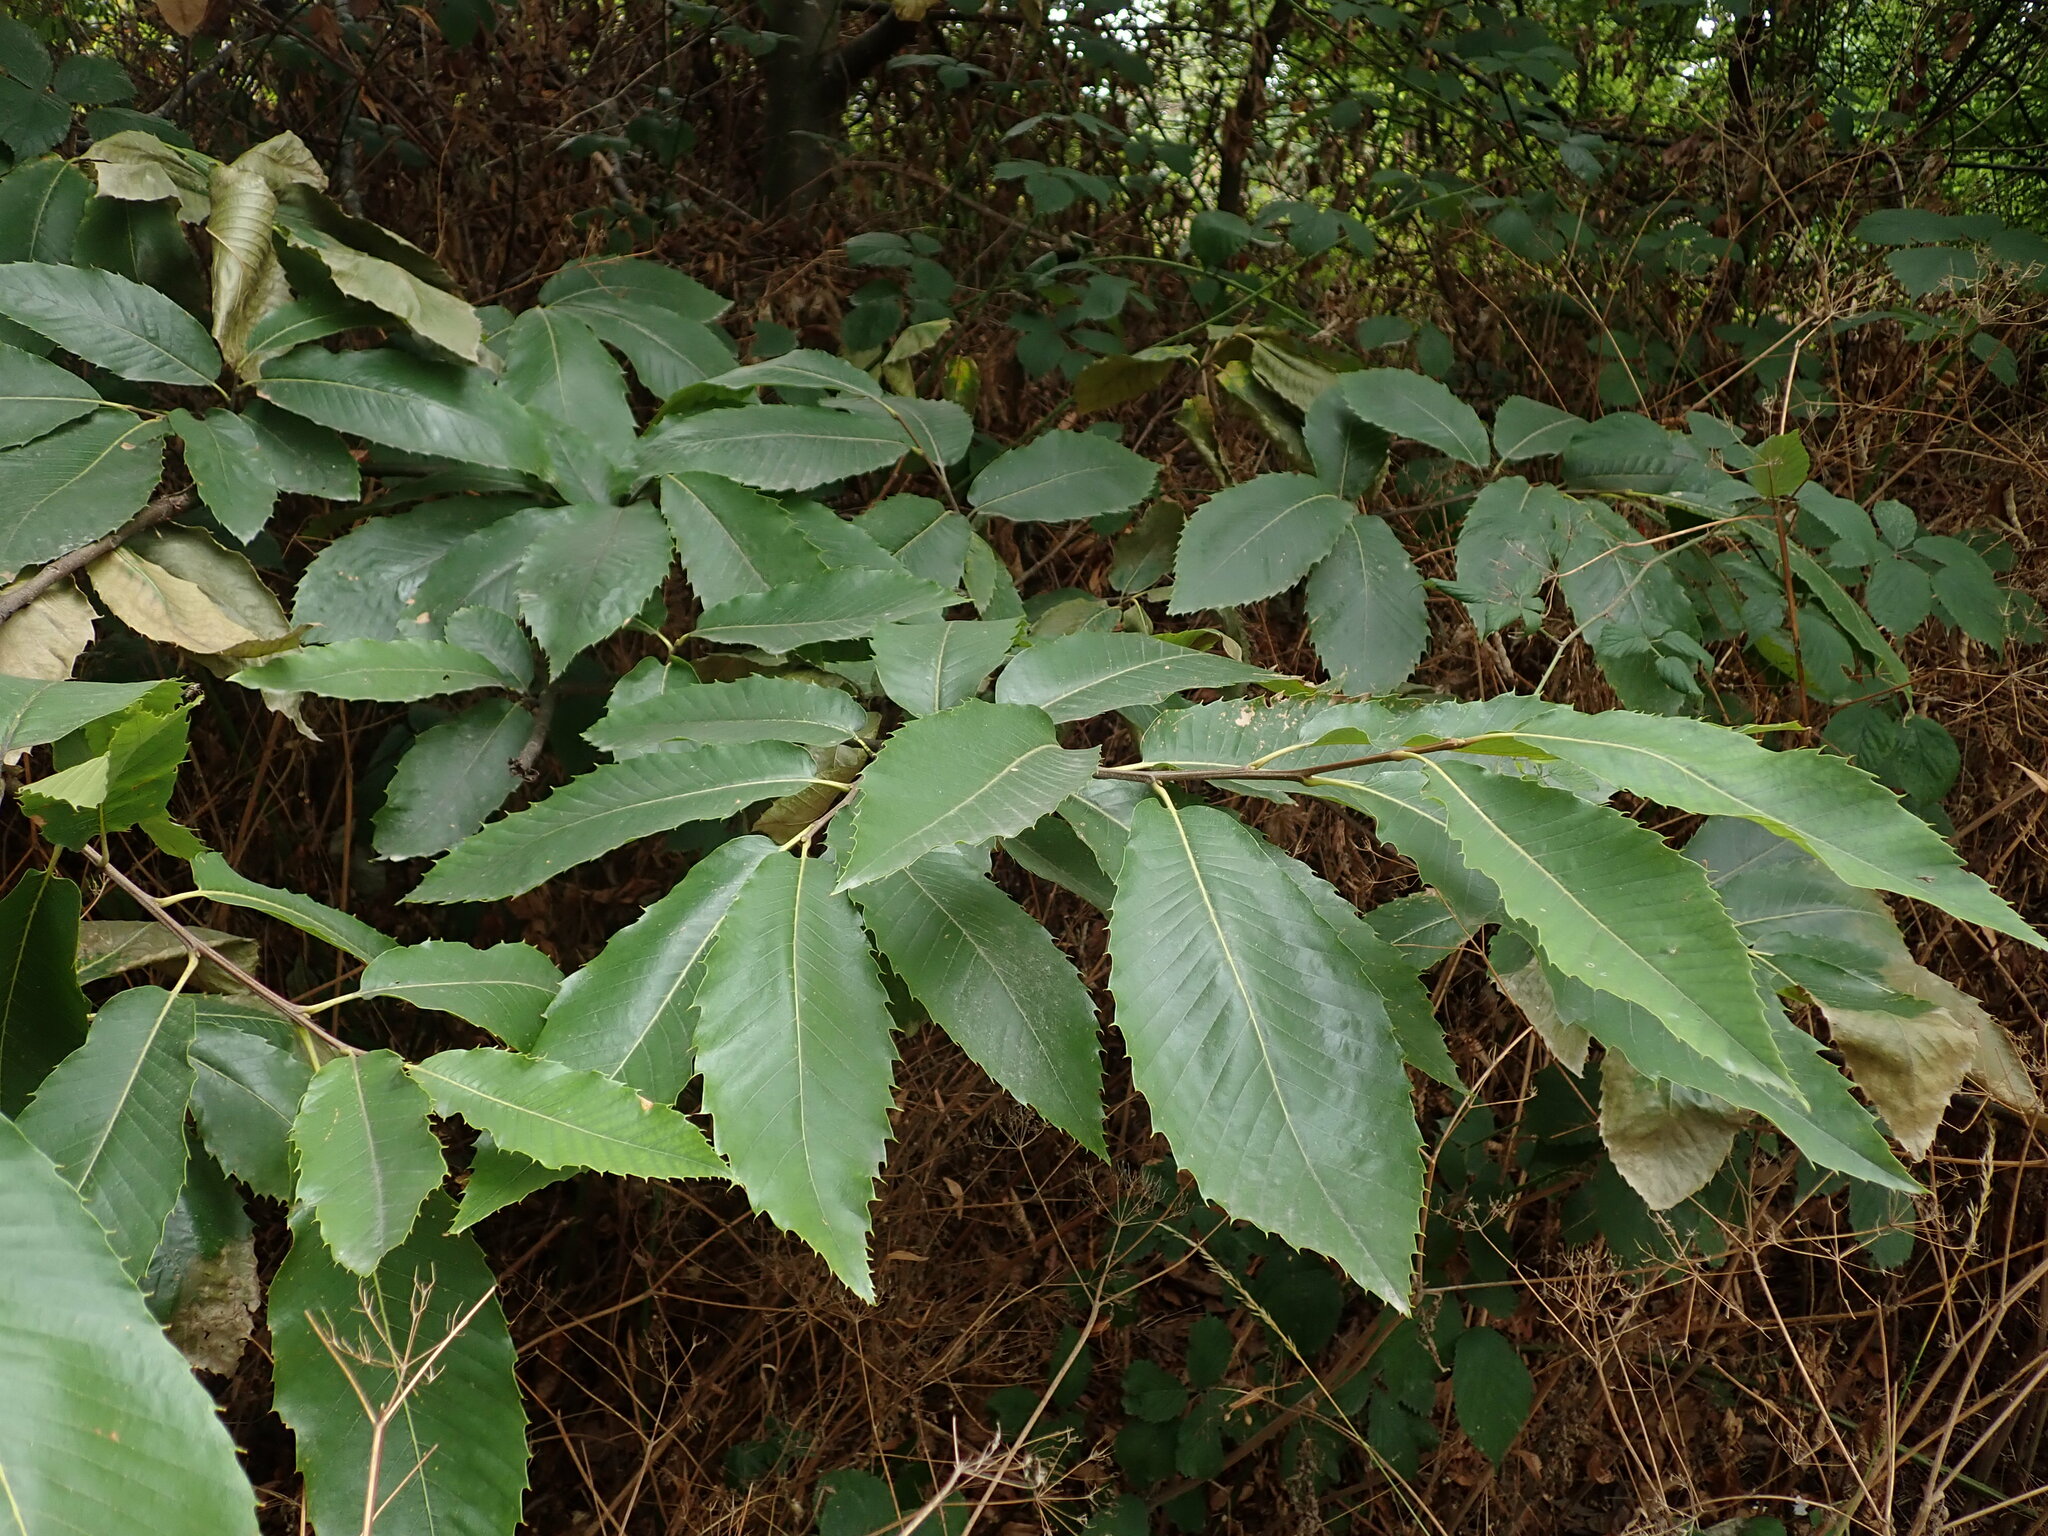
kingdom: Plantae
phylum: Tracheophyta
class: Magnoliopsida
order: Fagales
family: Fagaceae
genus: Castanea
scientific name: Castanea sativa
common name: Sweet chestnut
